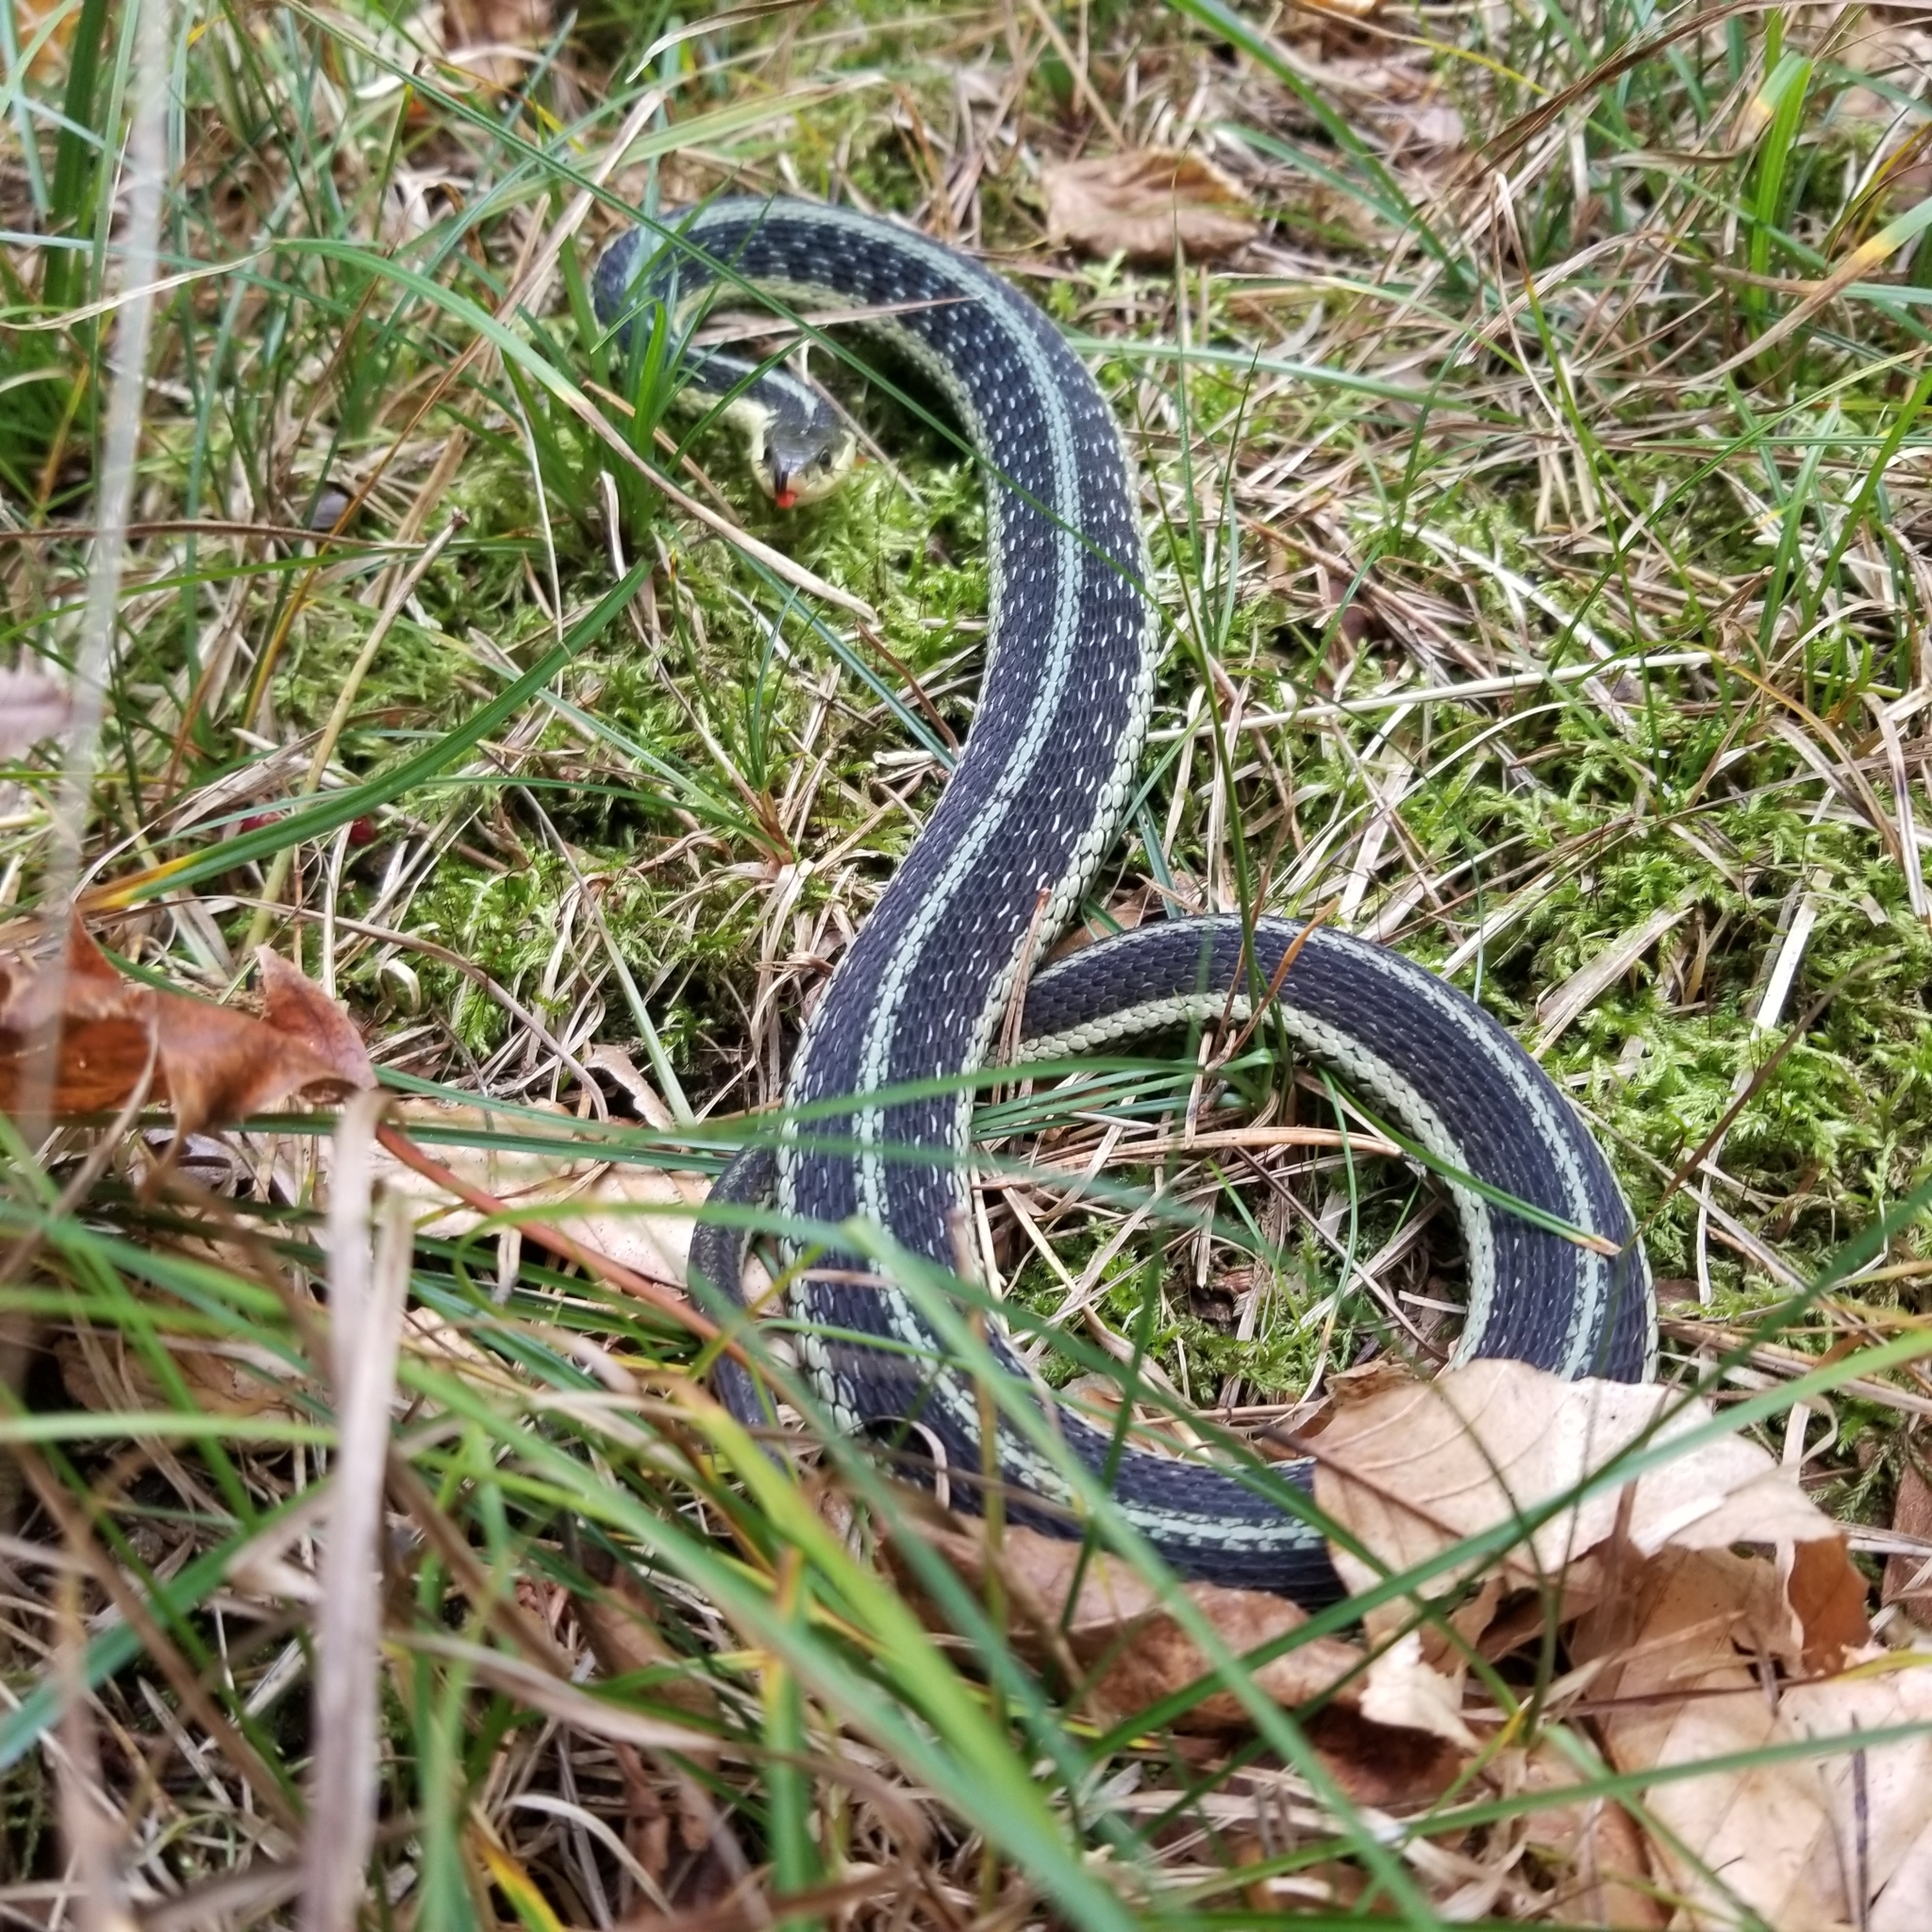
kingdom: Animalia
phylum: Chordata
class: Squamata
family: Colubridae
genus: Thamnophis
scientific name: Thamnophis sirtalis
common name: Common garter snake
